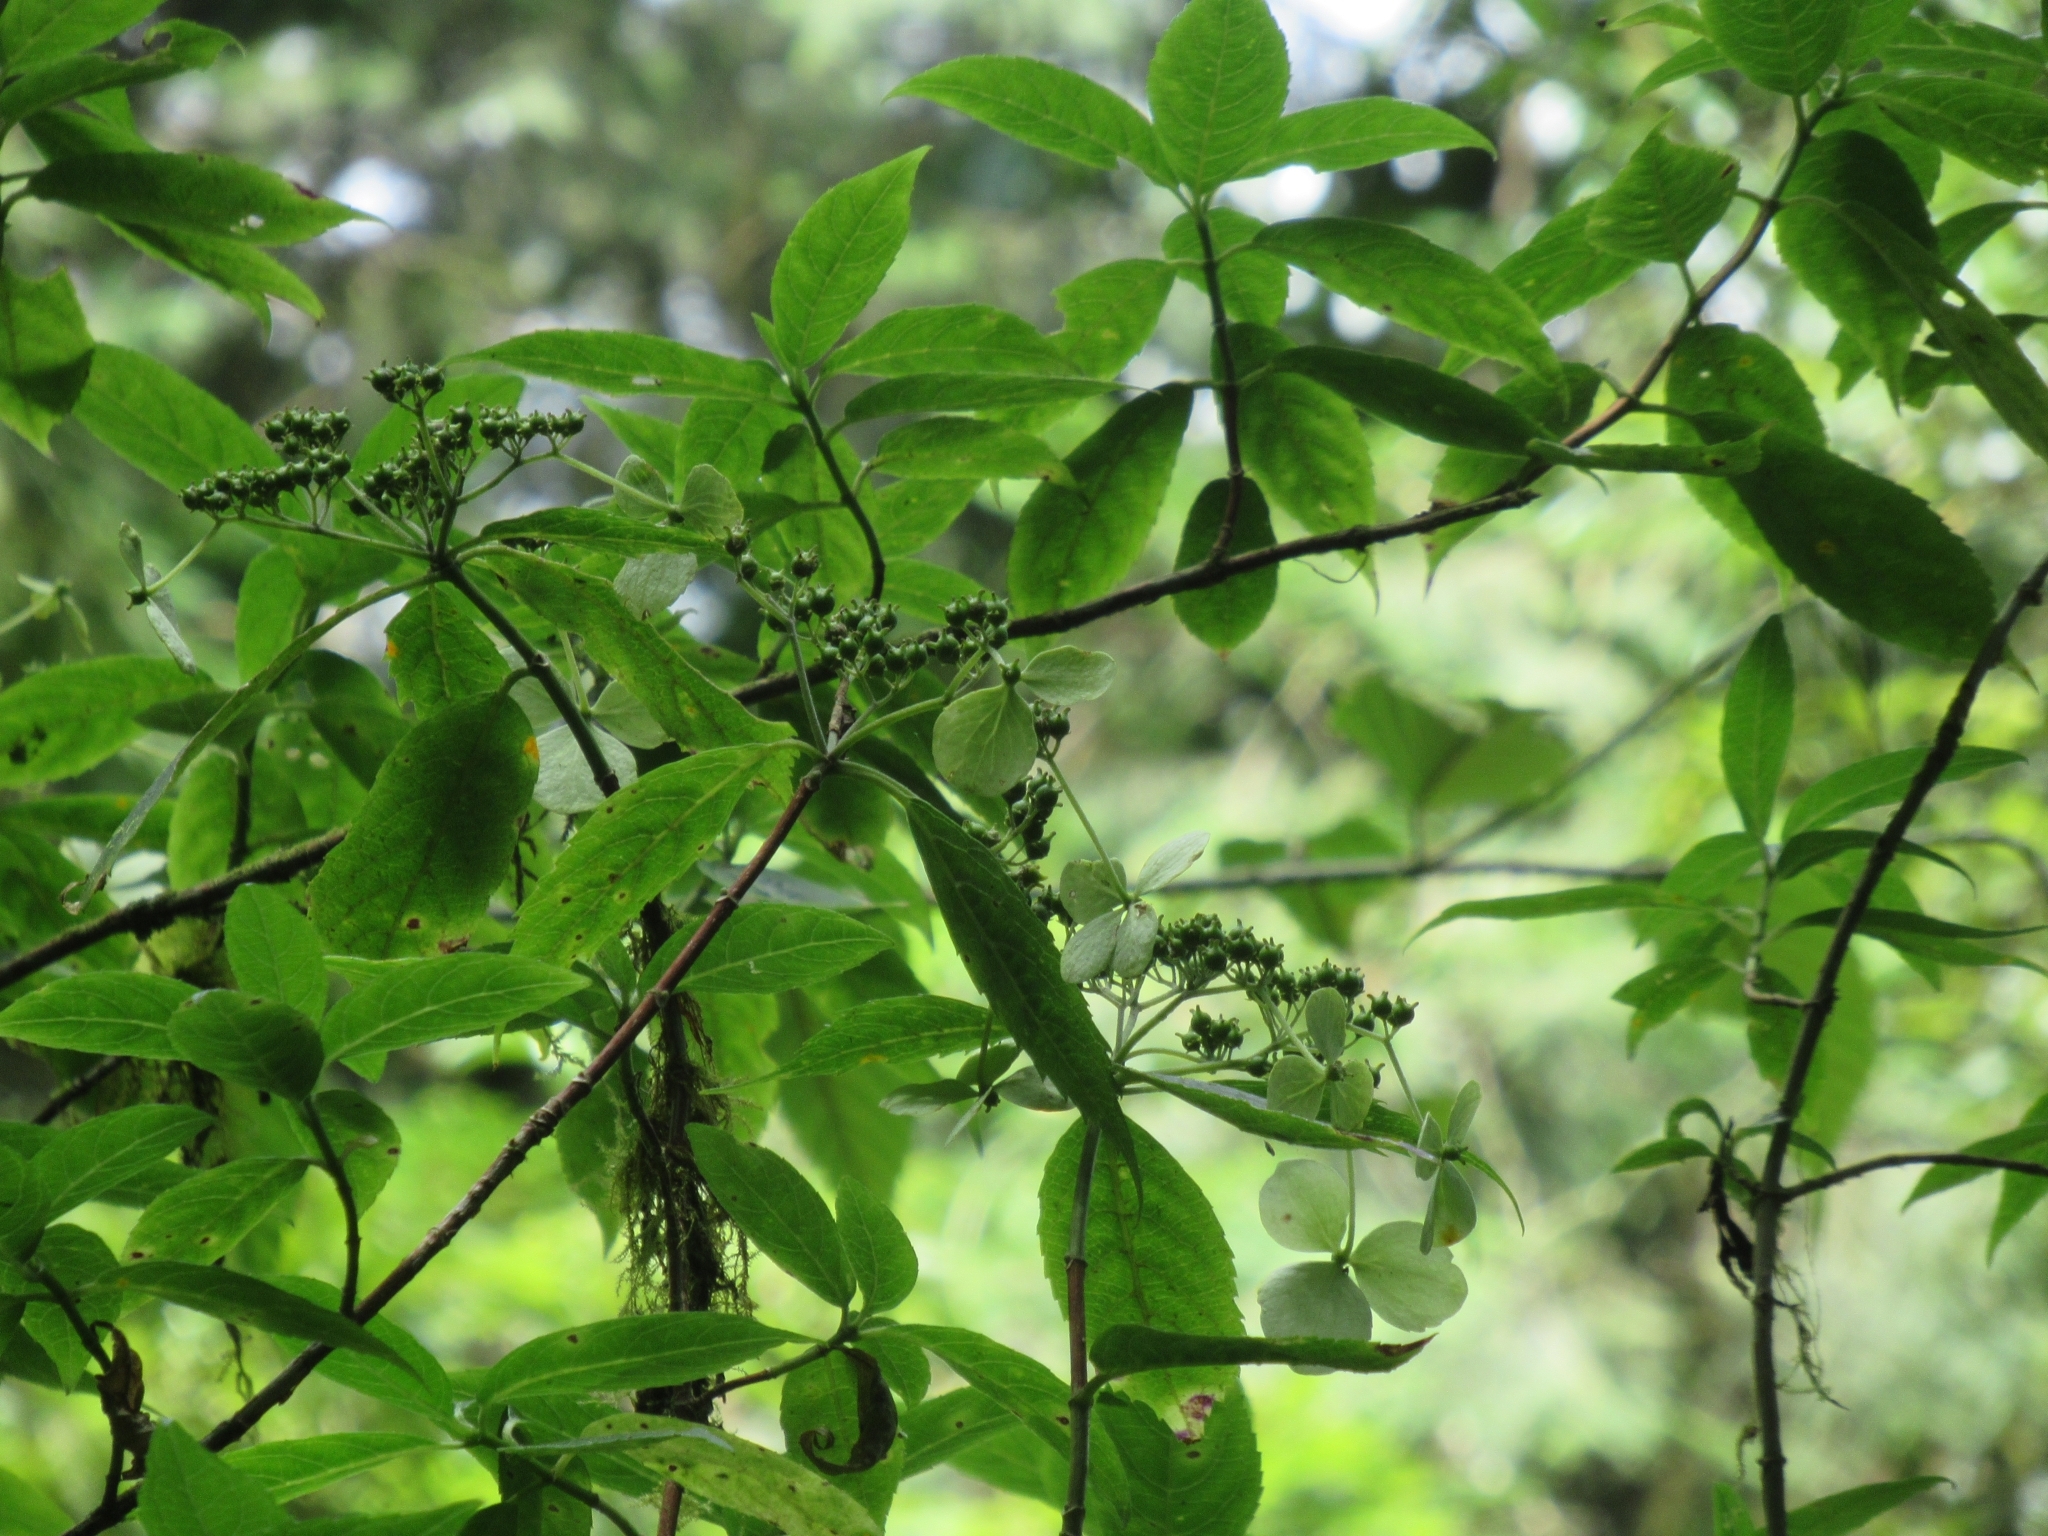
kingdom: Plantae
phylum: Tracheophyta
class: Magnoliopsida
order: Cornales
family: Hydrangeaceae
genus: Hydrangea
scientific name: Hydrangea chinensis
